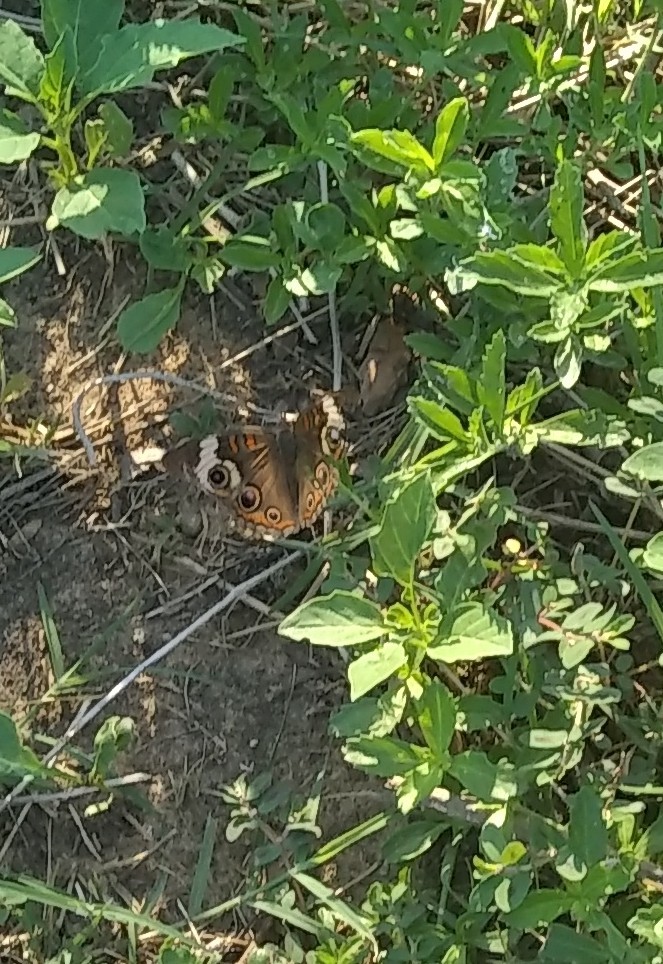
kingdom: Animalia
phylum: Arthropoda
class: Insecta
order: Lepidoptera
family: Nymphalidae
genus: Junonia
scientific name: Junonia coenia
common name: Common buckeye
